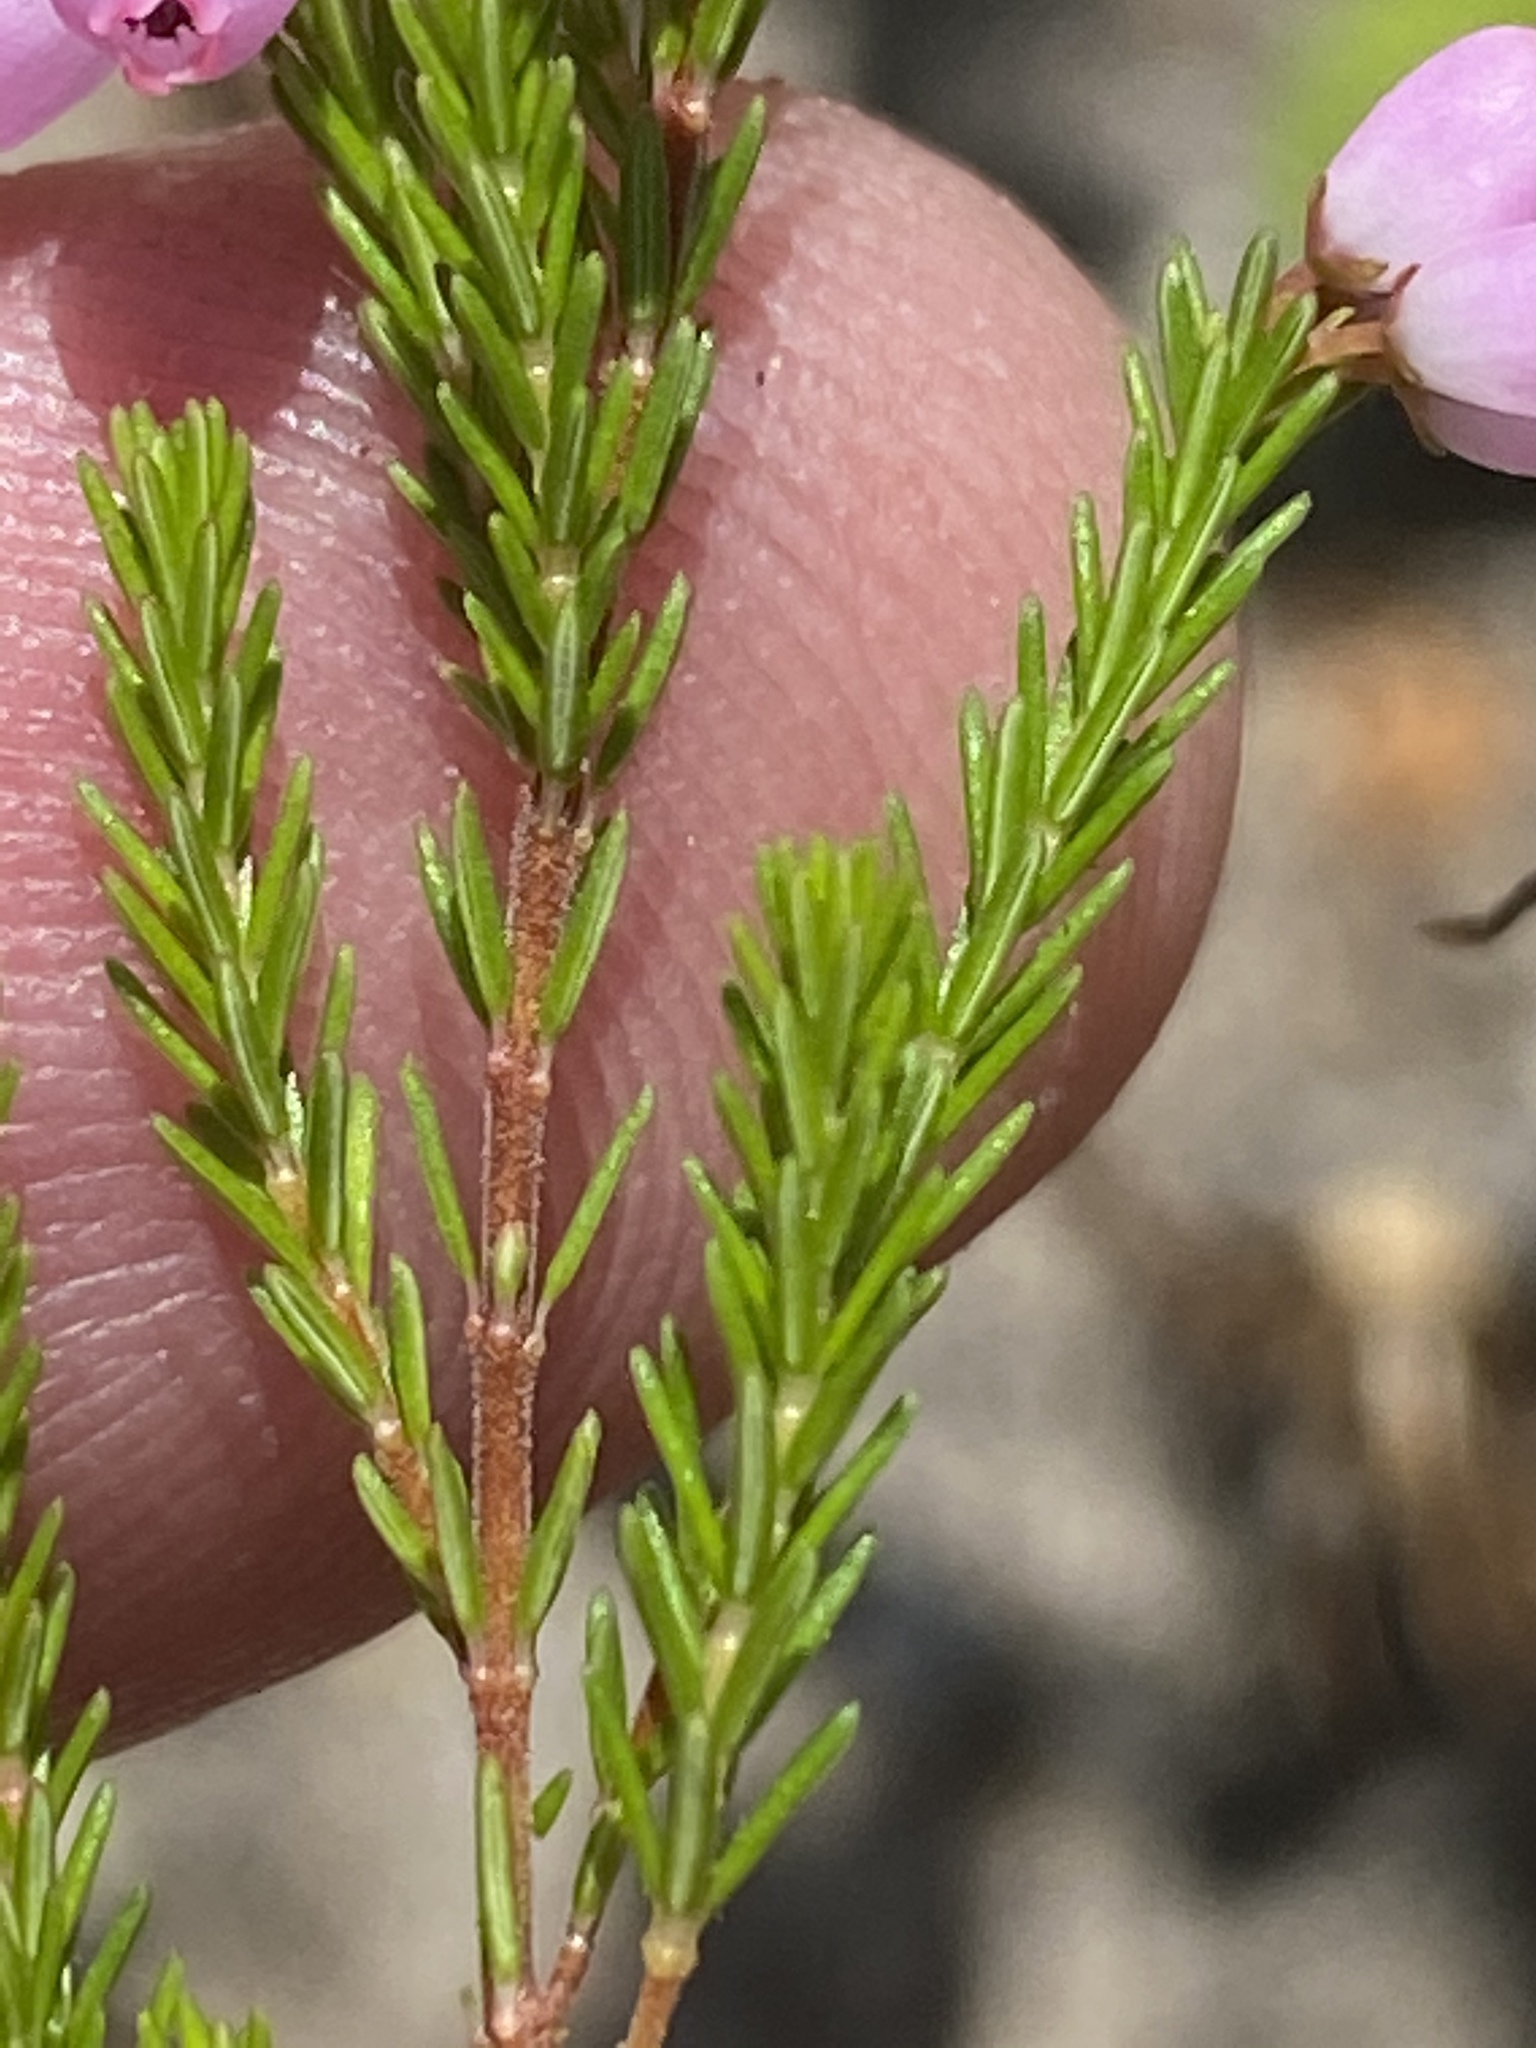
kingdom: Plantae
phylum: Tracheophyta
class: Magnoliopsida
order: Ericales
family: Ericaceae
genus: Erica
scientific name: Erica gracilis
